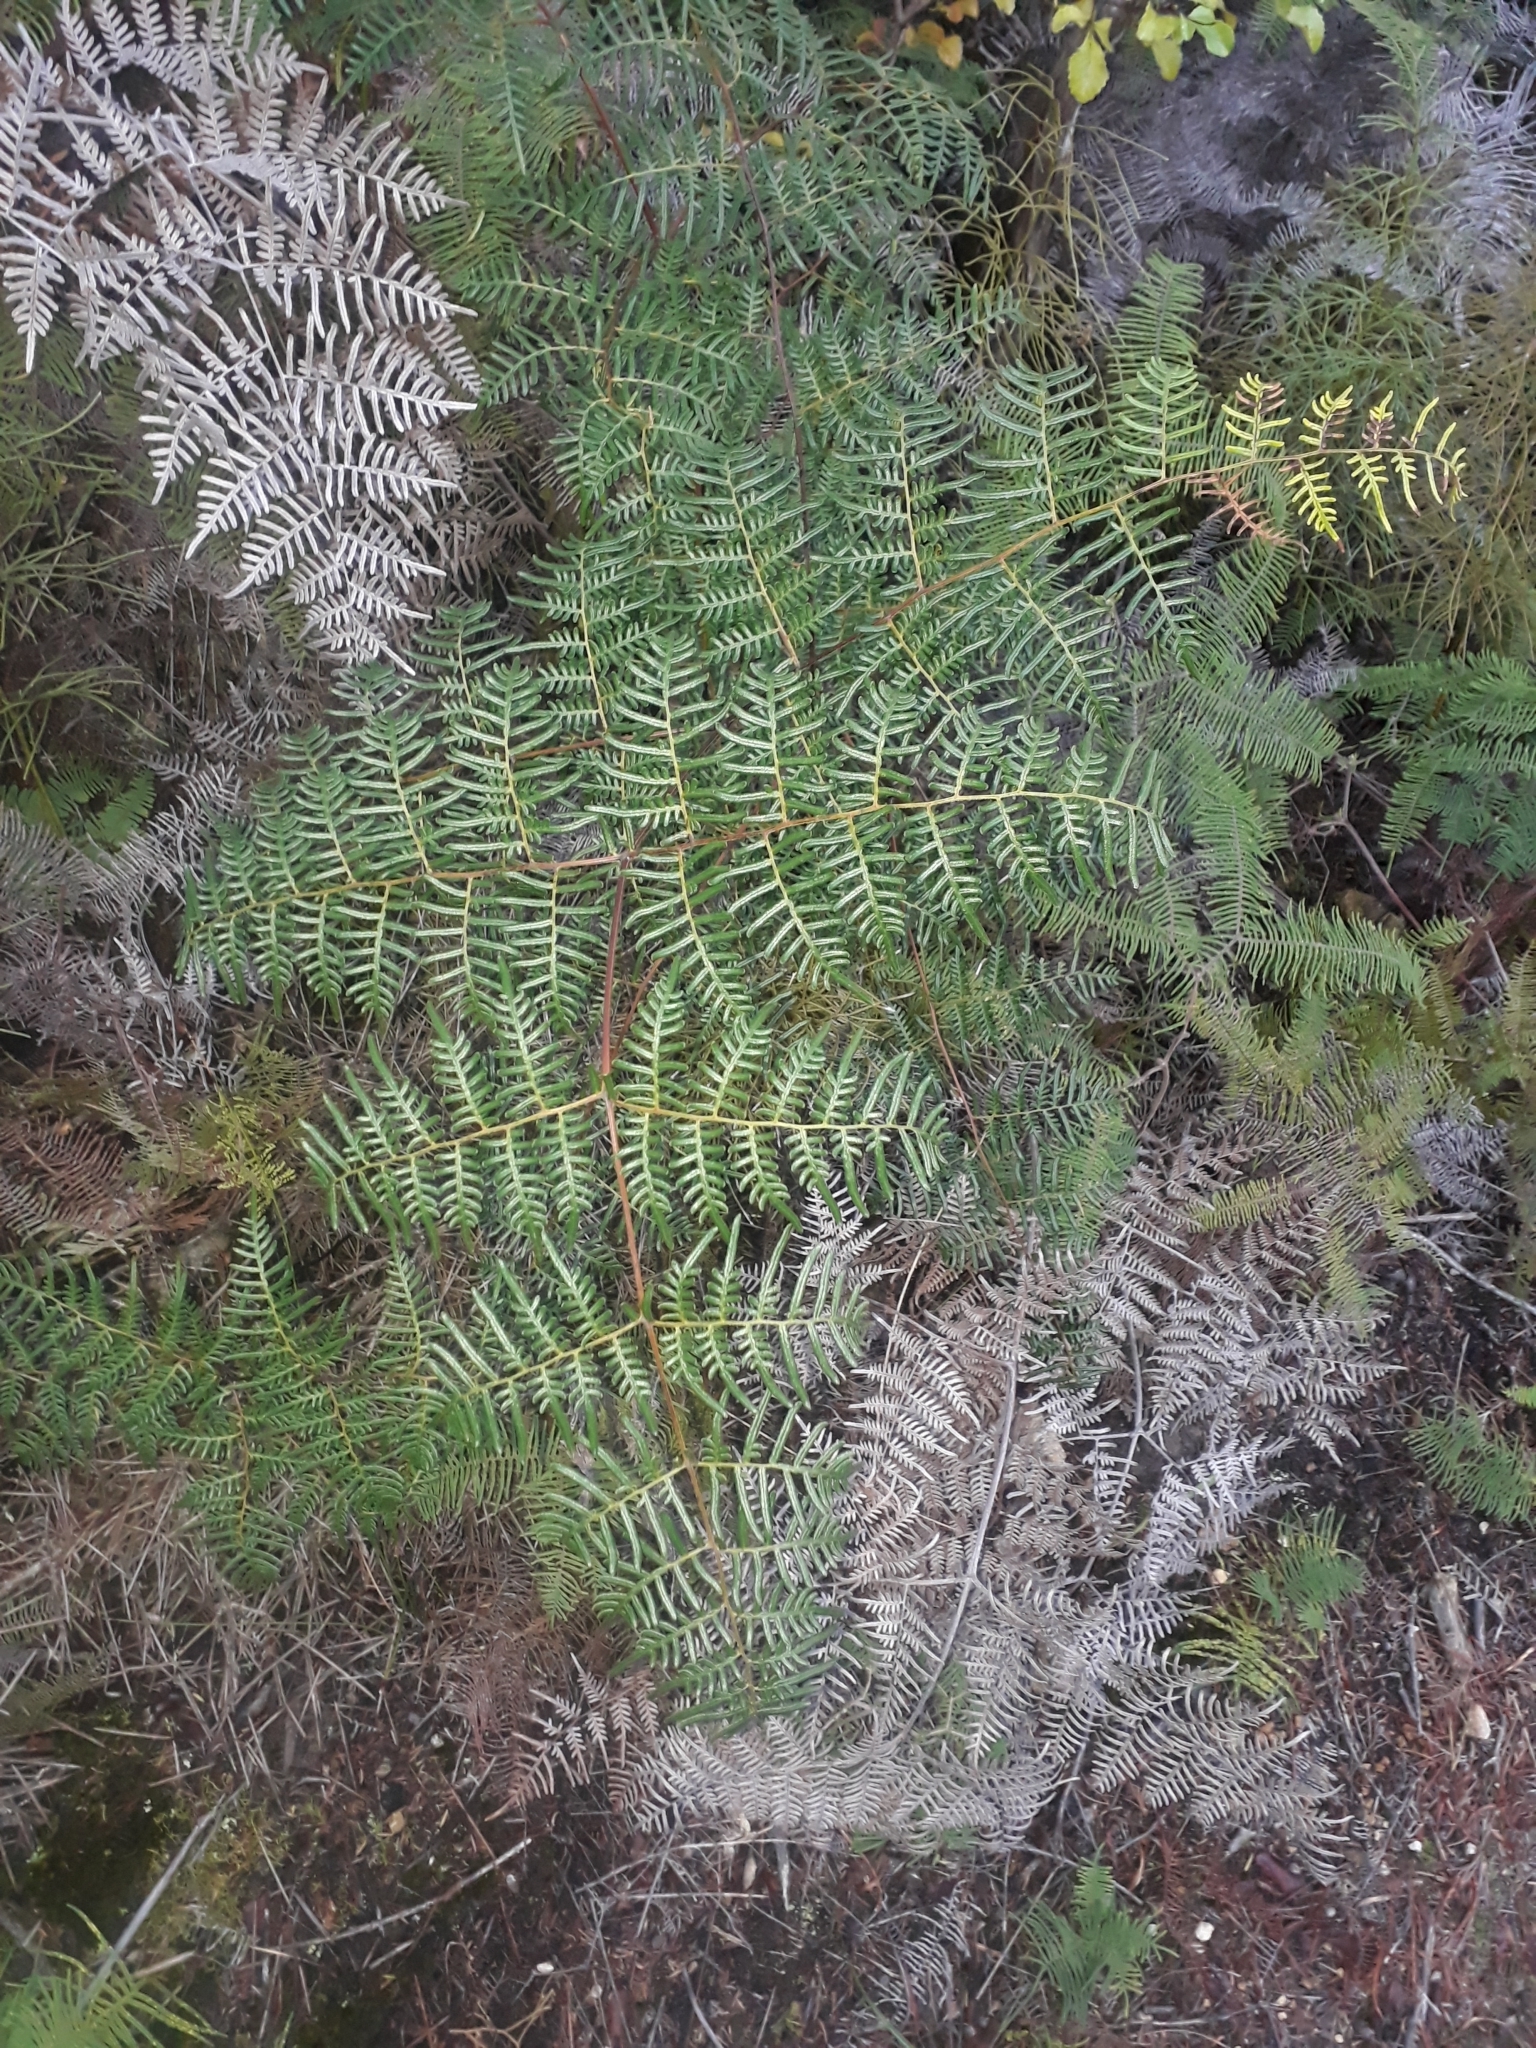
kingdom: Plantae
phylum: Tracheophyta
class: Polypodiopsida
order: Polypodiales
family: Dennstaedtiaceae
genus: Pteridium
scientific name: Pteridium esculentum
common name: Bracken fern
